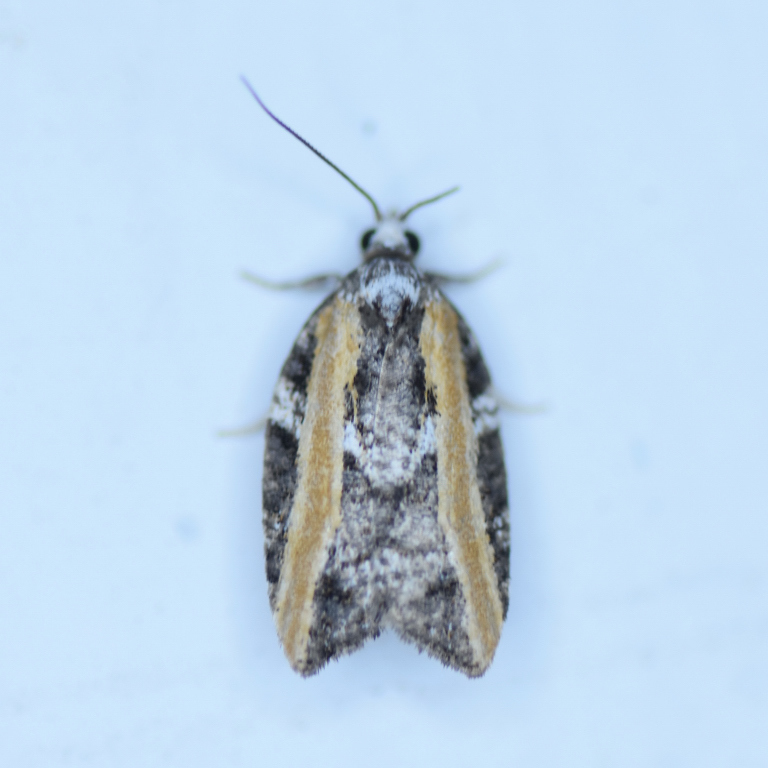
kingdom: Animalia
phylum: Arthropoda
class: Insecta
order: Lepidoptera
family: Tortricidae
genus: Acleris
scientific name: Acleris variana
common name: Eastern black-headed budworm moth
